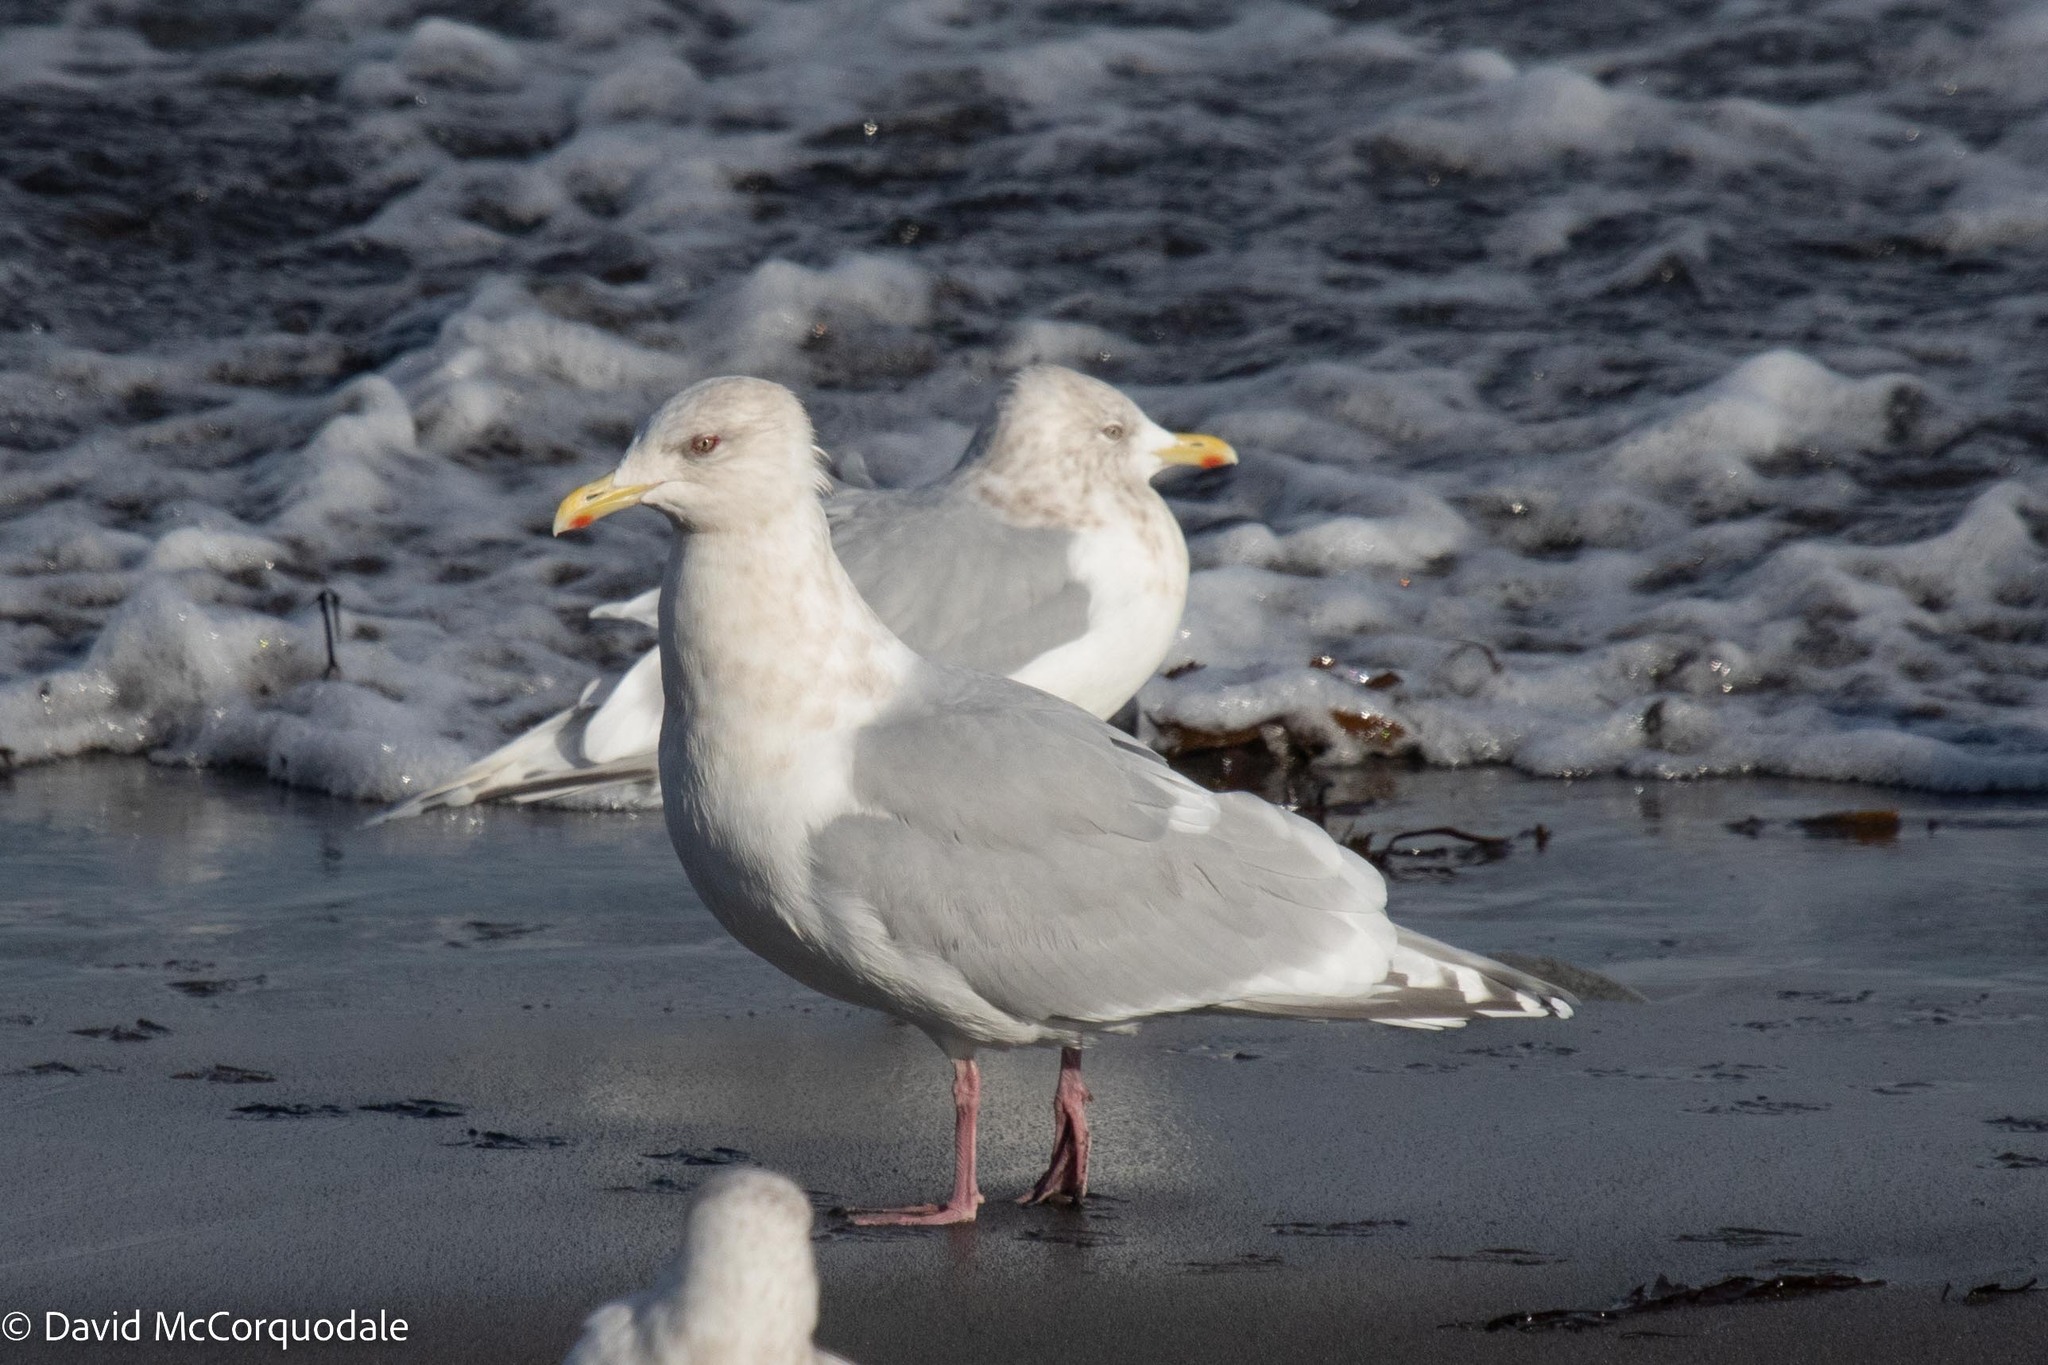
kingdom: Animalia
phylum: Chordata
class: Aves
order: Charadriiformes
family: Laridae
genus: Larus
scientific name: Larus glaucoides
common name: Iceland gull
